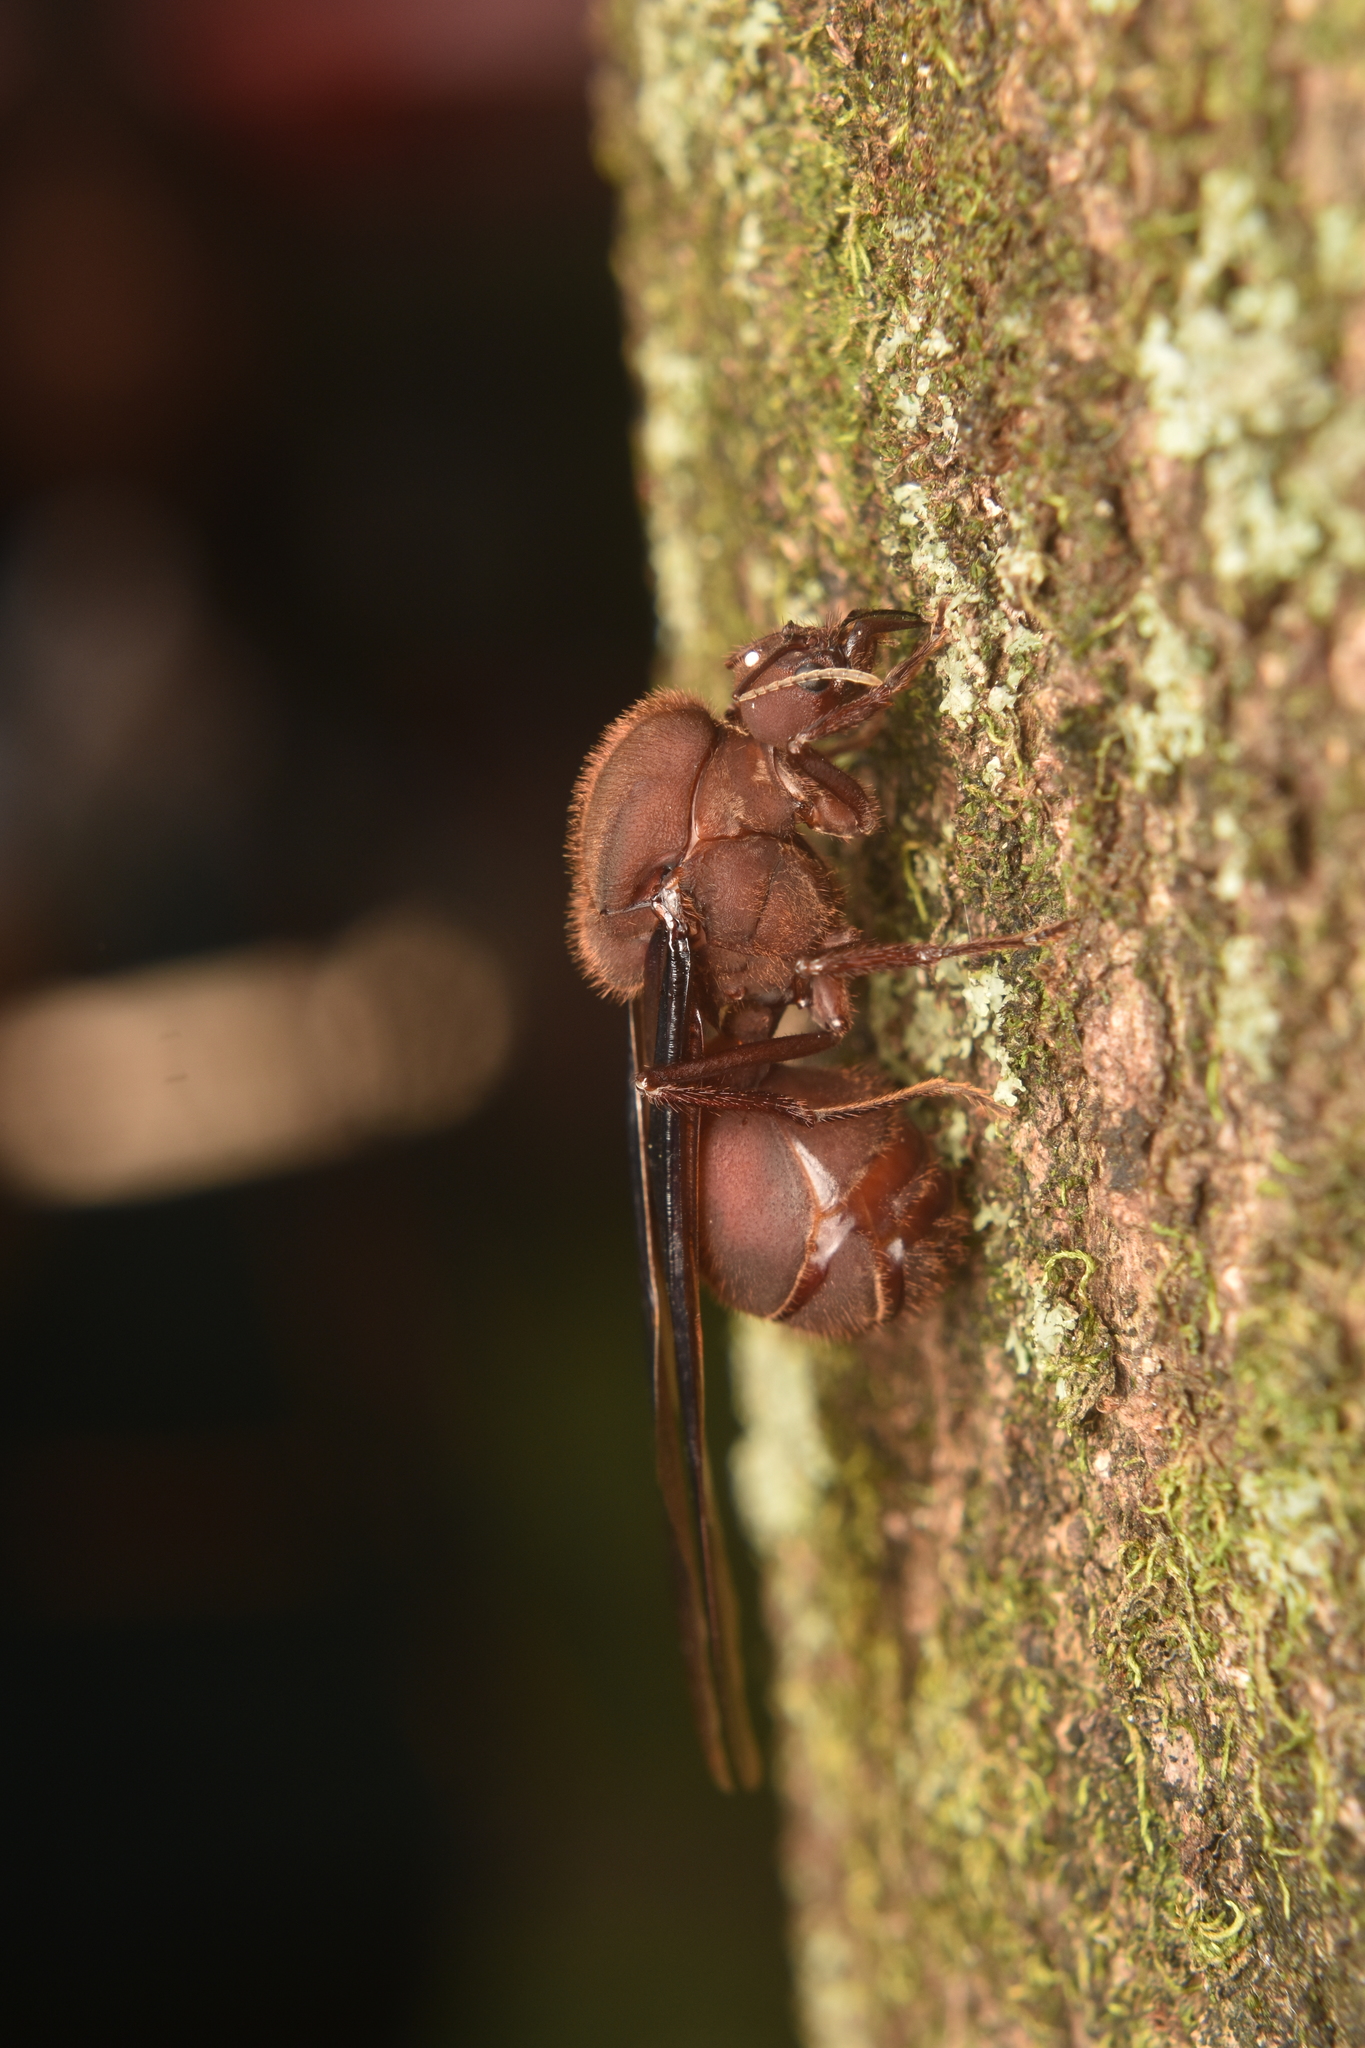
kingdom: Animalia
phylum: Arthropoda
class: Insecta
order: Hymenoptera
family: Formicidae
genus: Atta
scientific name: Atta cephalotes
